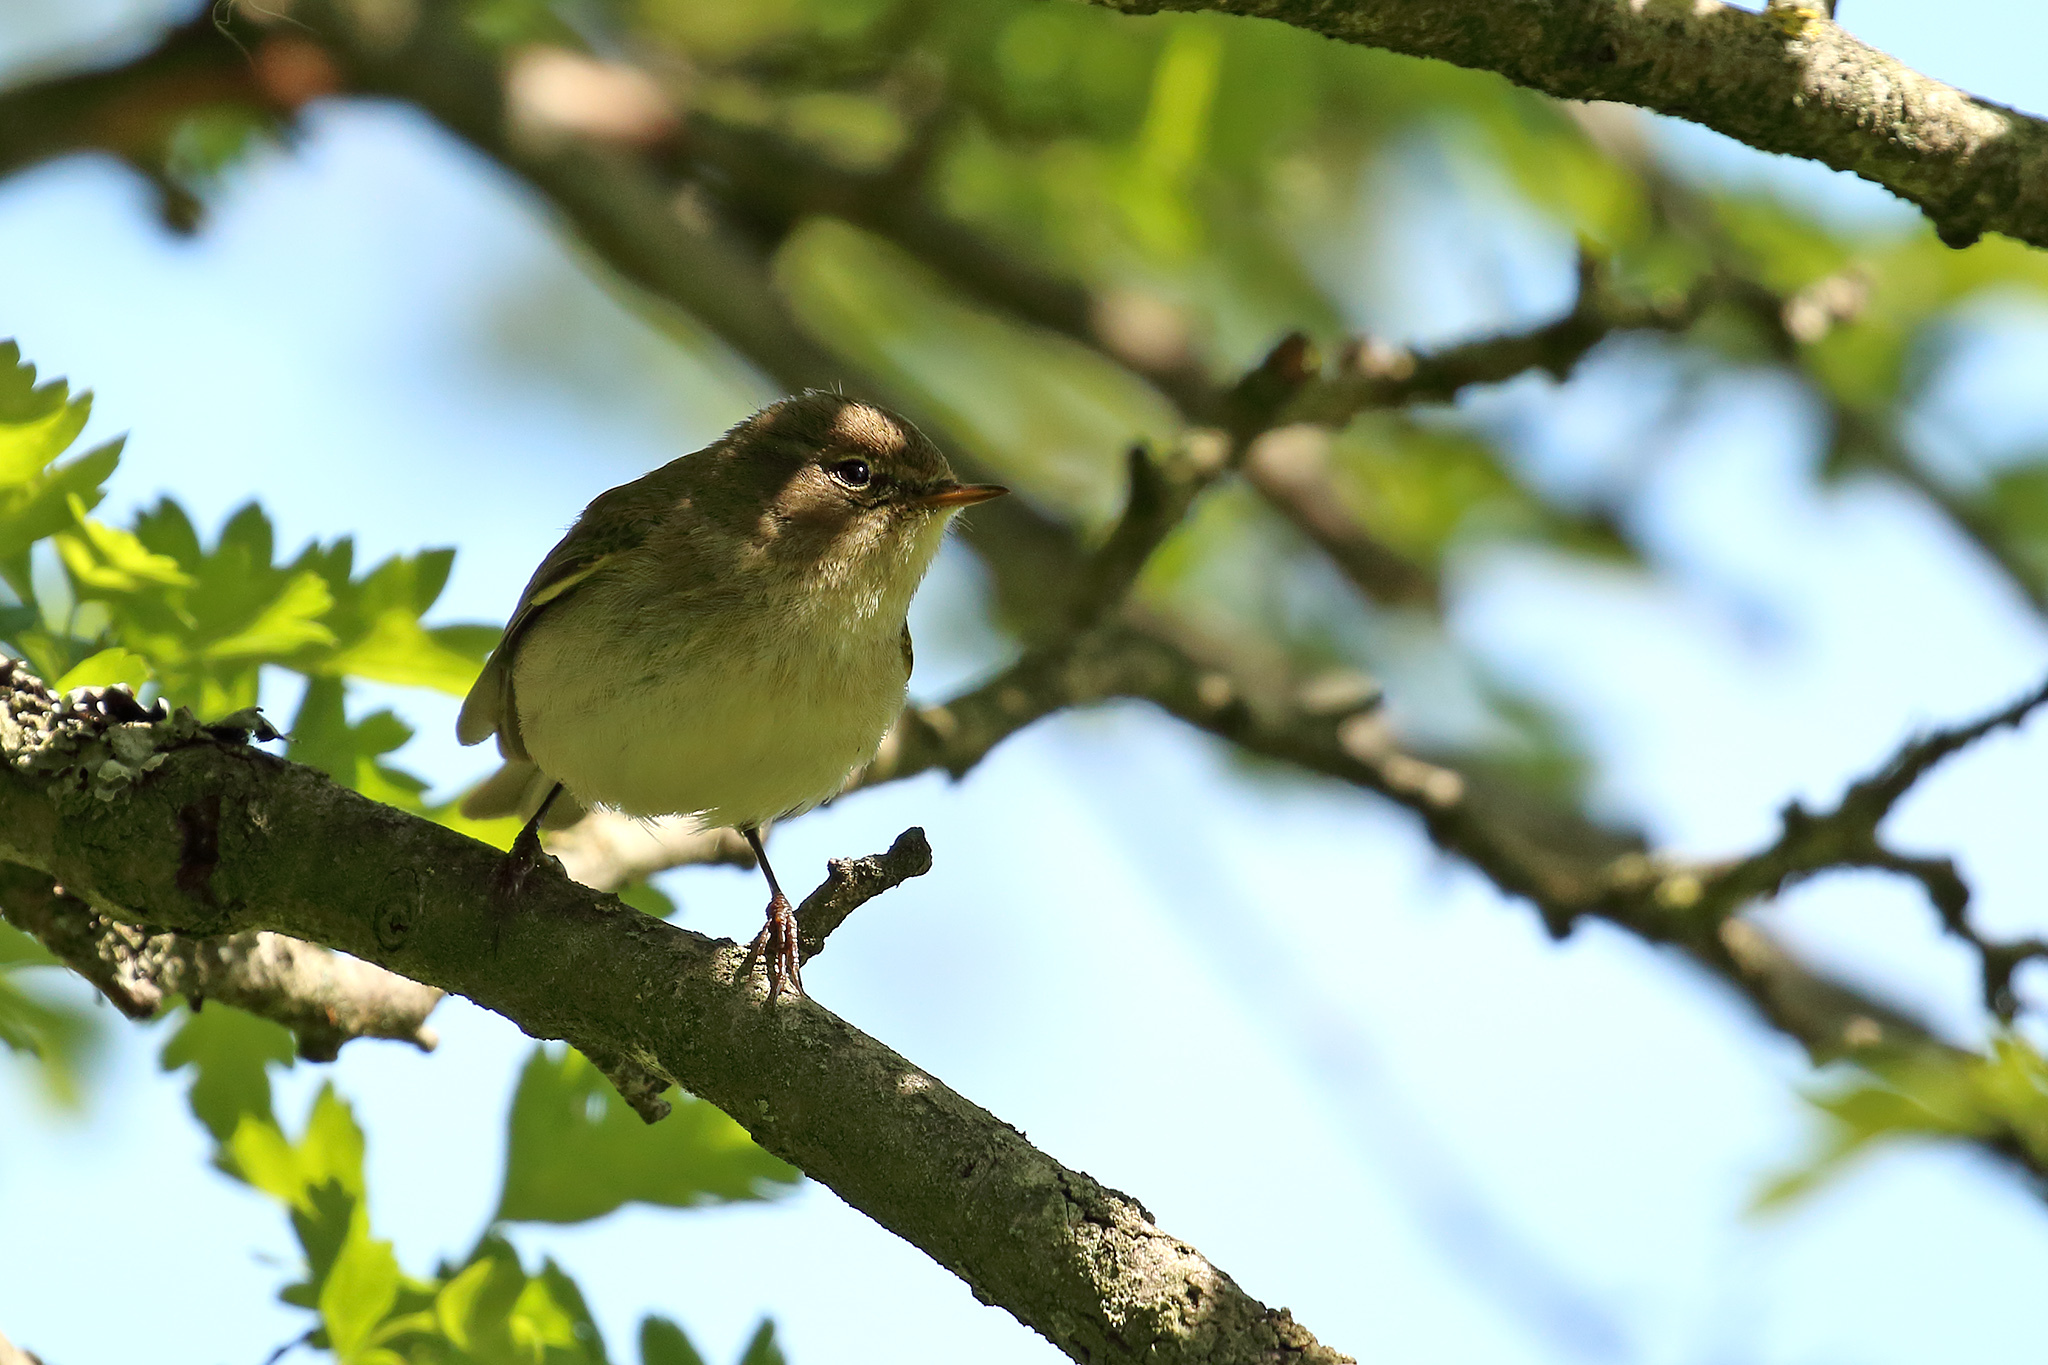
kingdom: Animalia
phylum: Chordata
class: Aves
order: Passeriformes
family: Phylloscopidae
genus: Phylloscopus
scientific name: Phylloscopus collybita
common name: Common chiffchaff
